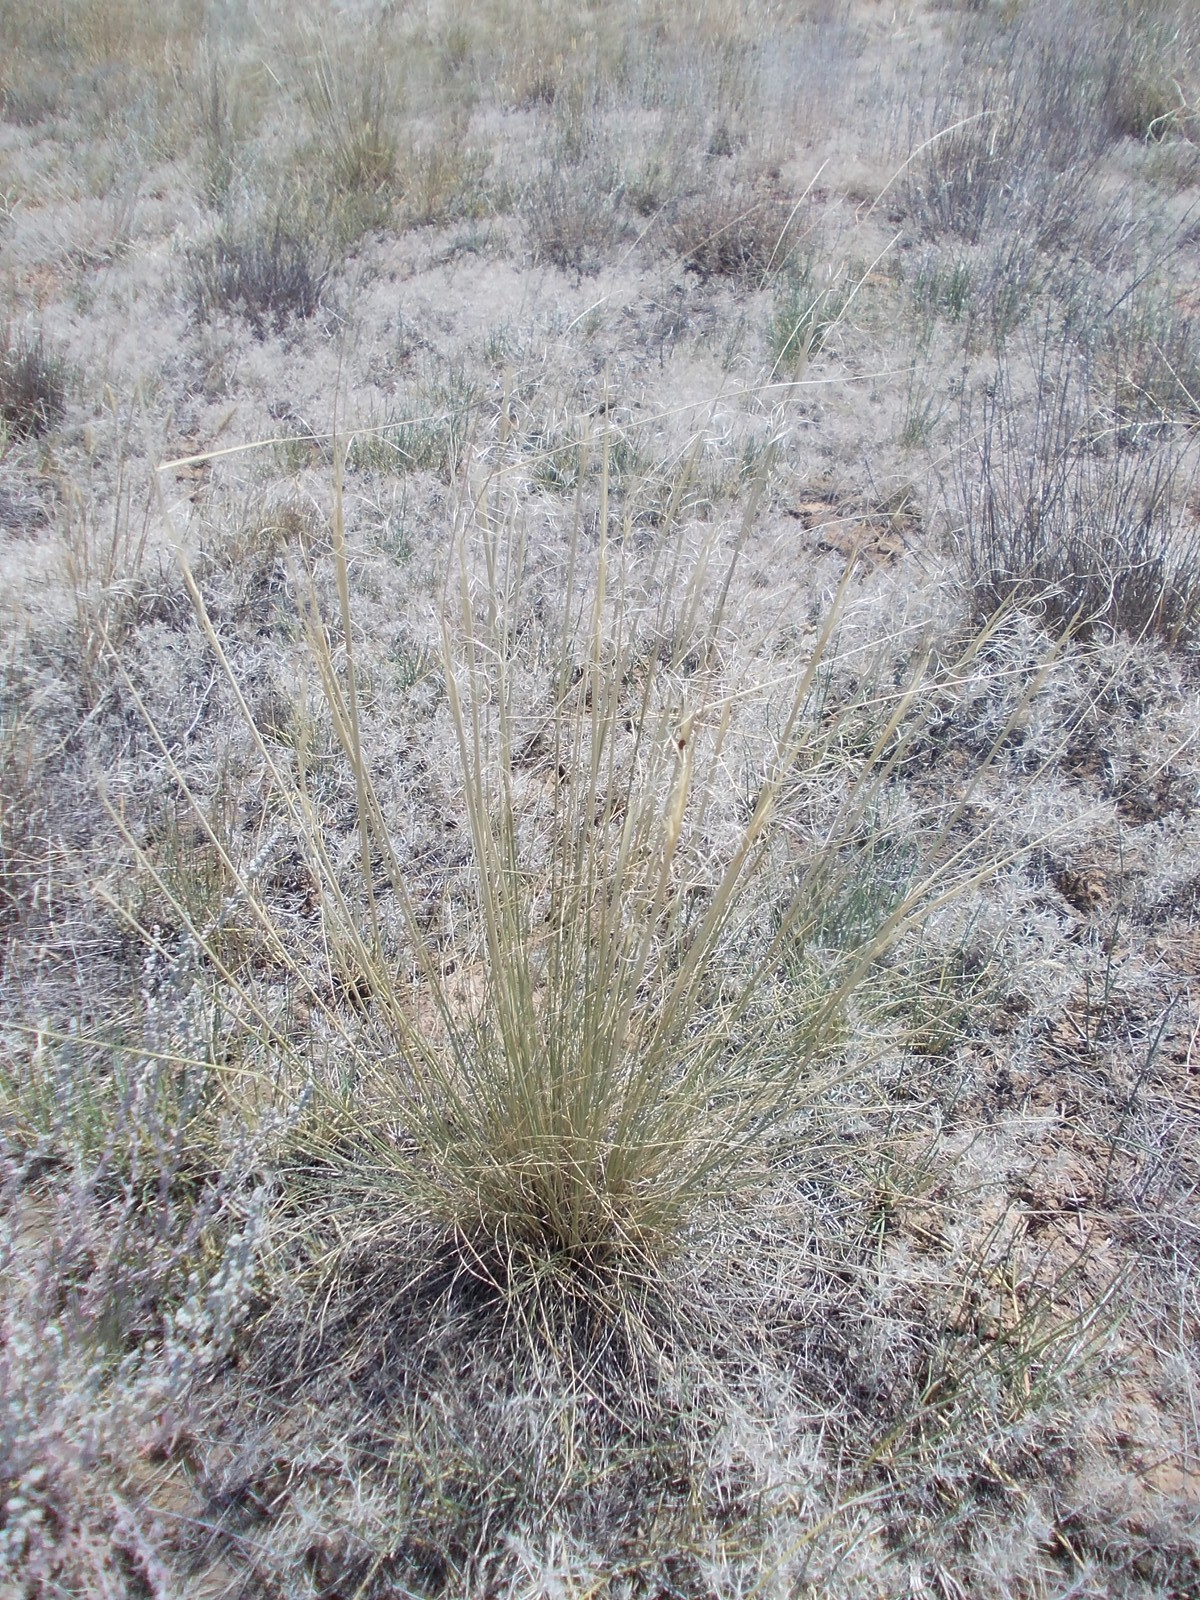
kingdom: Plantae
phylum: Tracheophyta
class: Liliopsida
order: Poales
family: Poaceae
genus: Stipa
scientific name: Stipa sareptana
